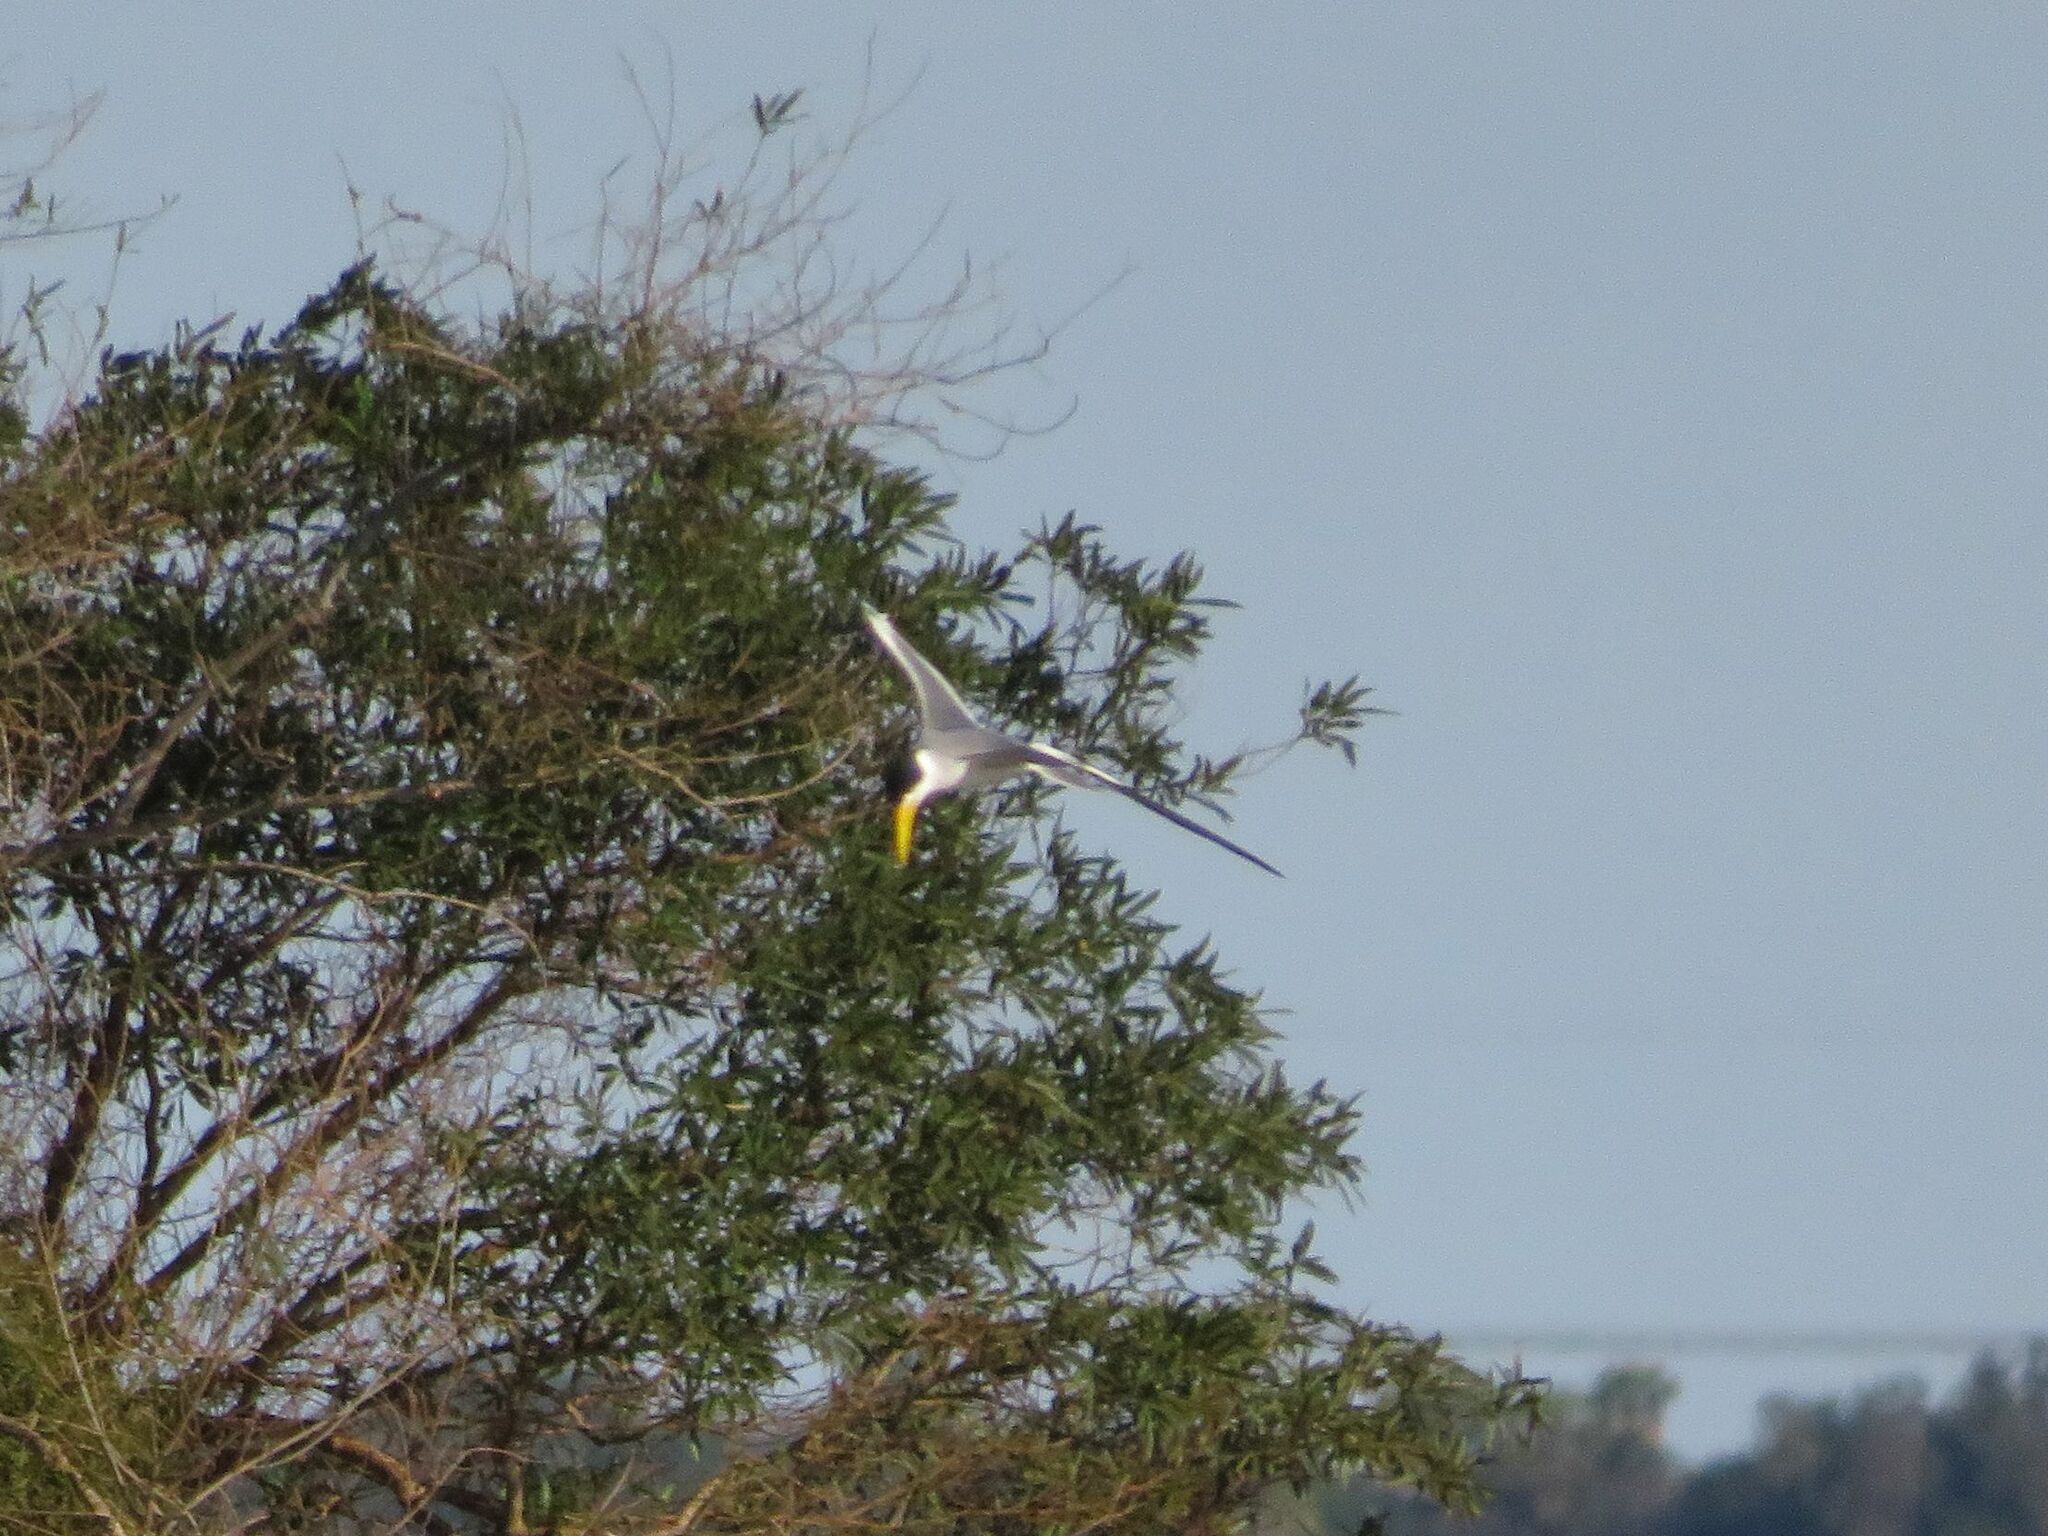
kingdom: Animalia
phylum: Chordata
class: Aves
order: Charadriiformes
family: Laridae
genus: Phaetusa
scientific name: Phaetusa simplex
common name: Large-billed tern
